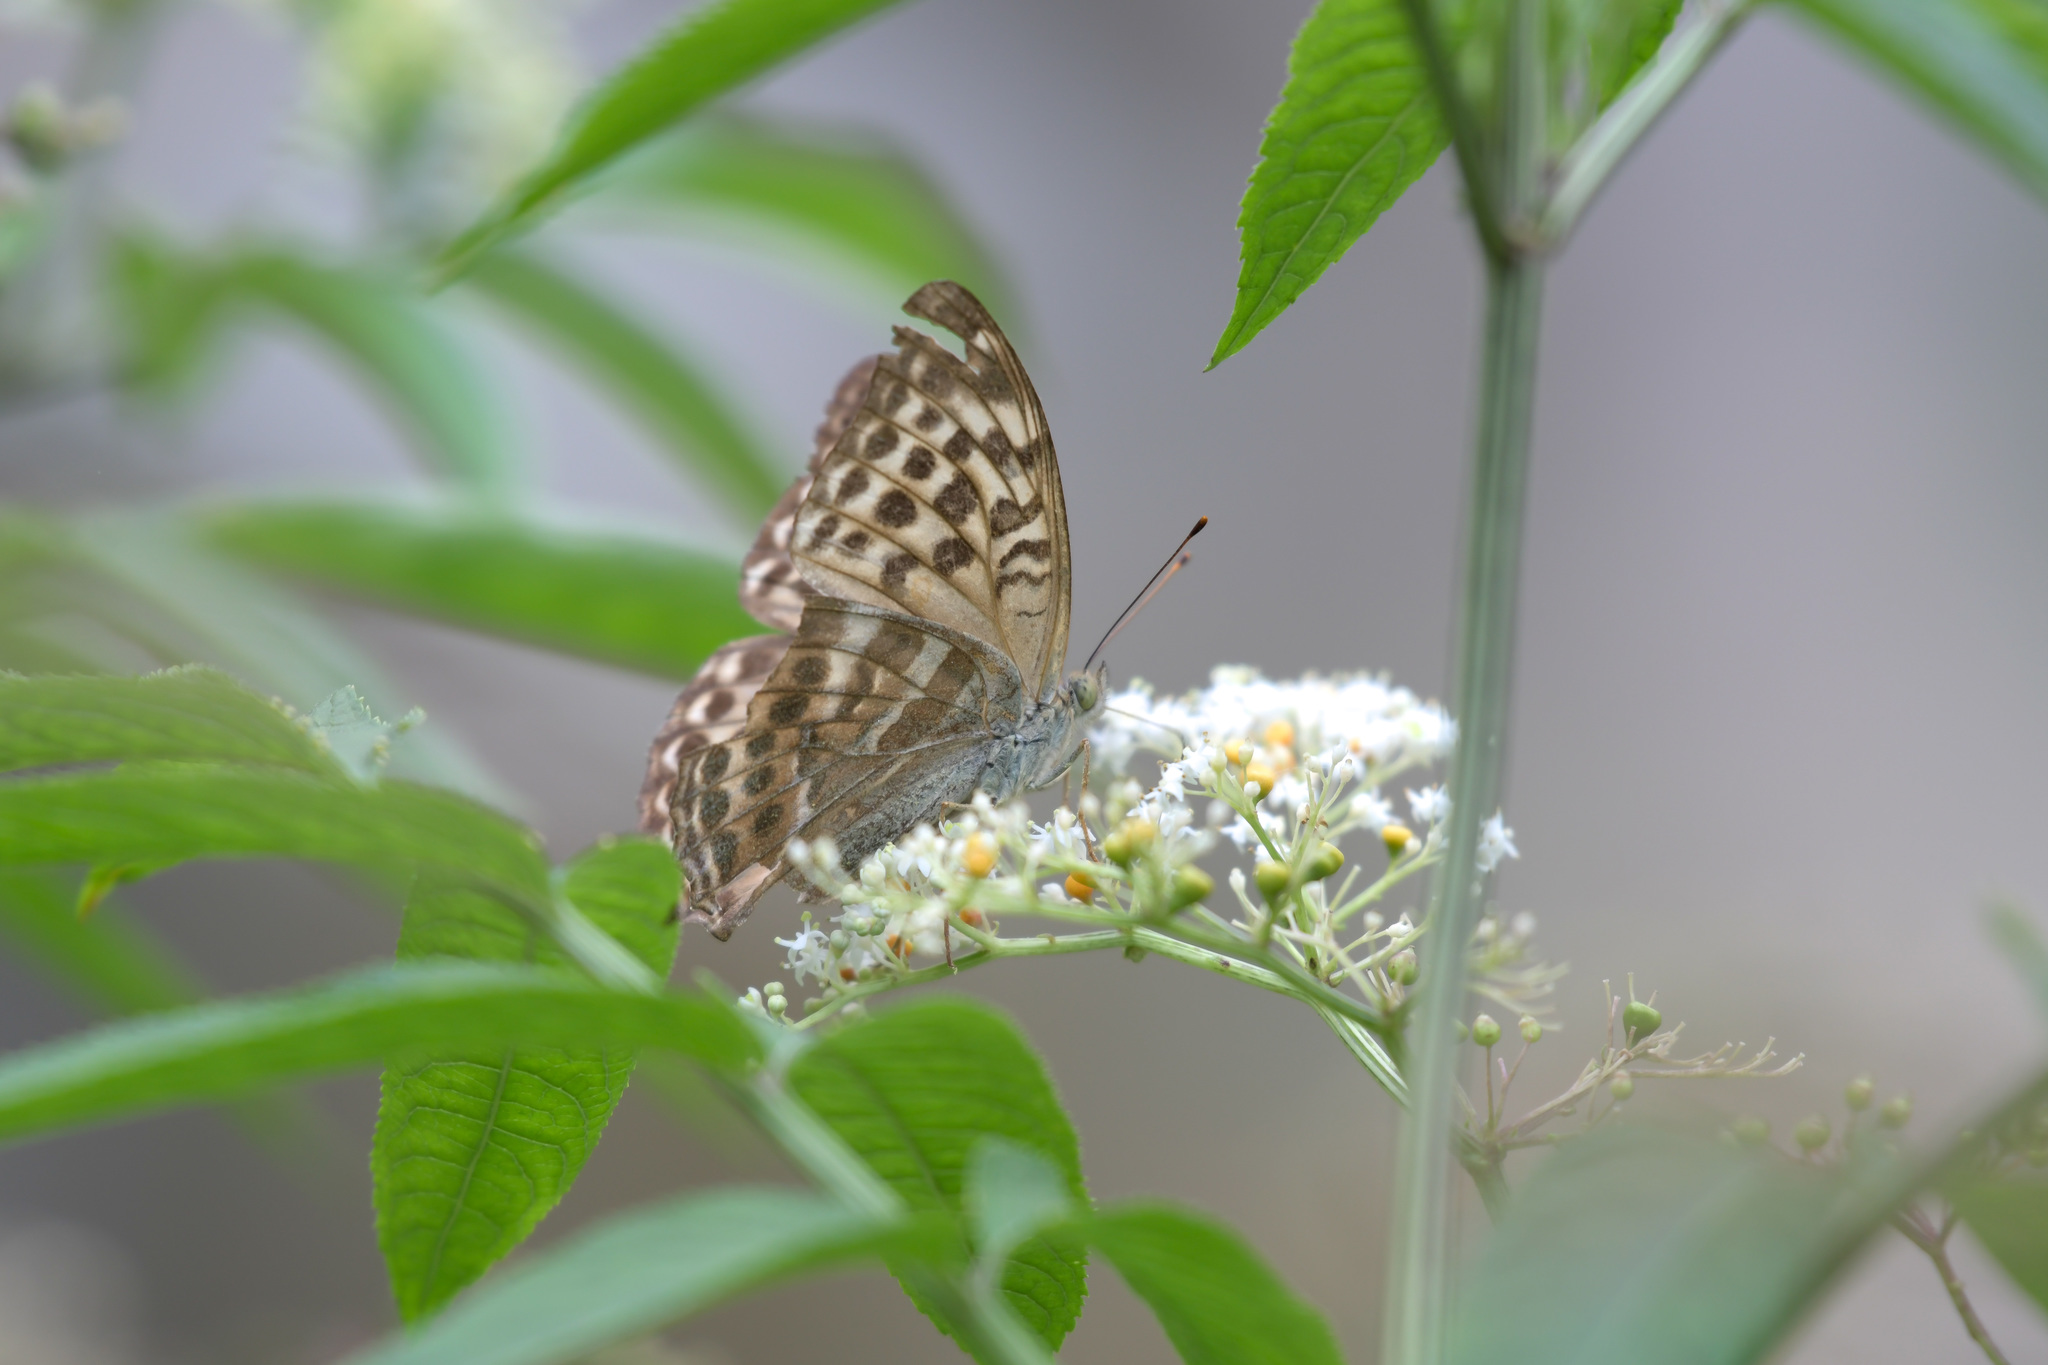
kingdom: Animalia
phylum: Arthropoda
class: Insecta
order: Lepidoptera
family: Nymphalidae
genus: Argynnis
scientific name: Argynnis paphia
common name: Silver-washed fritillary
